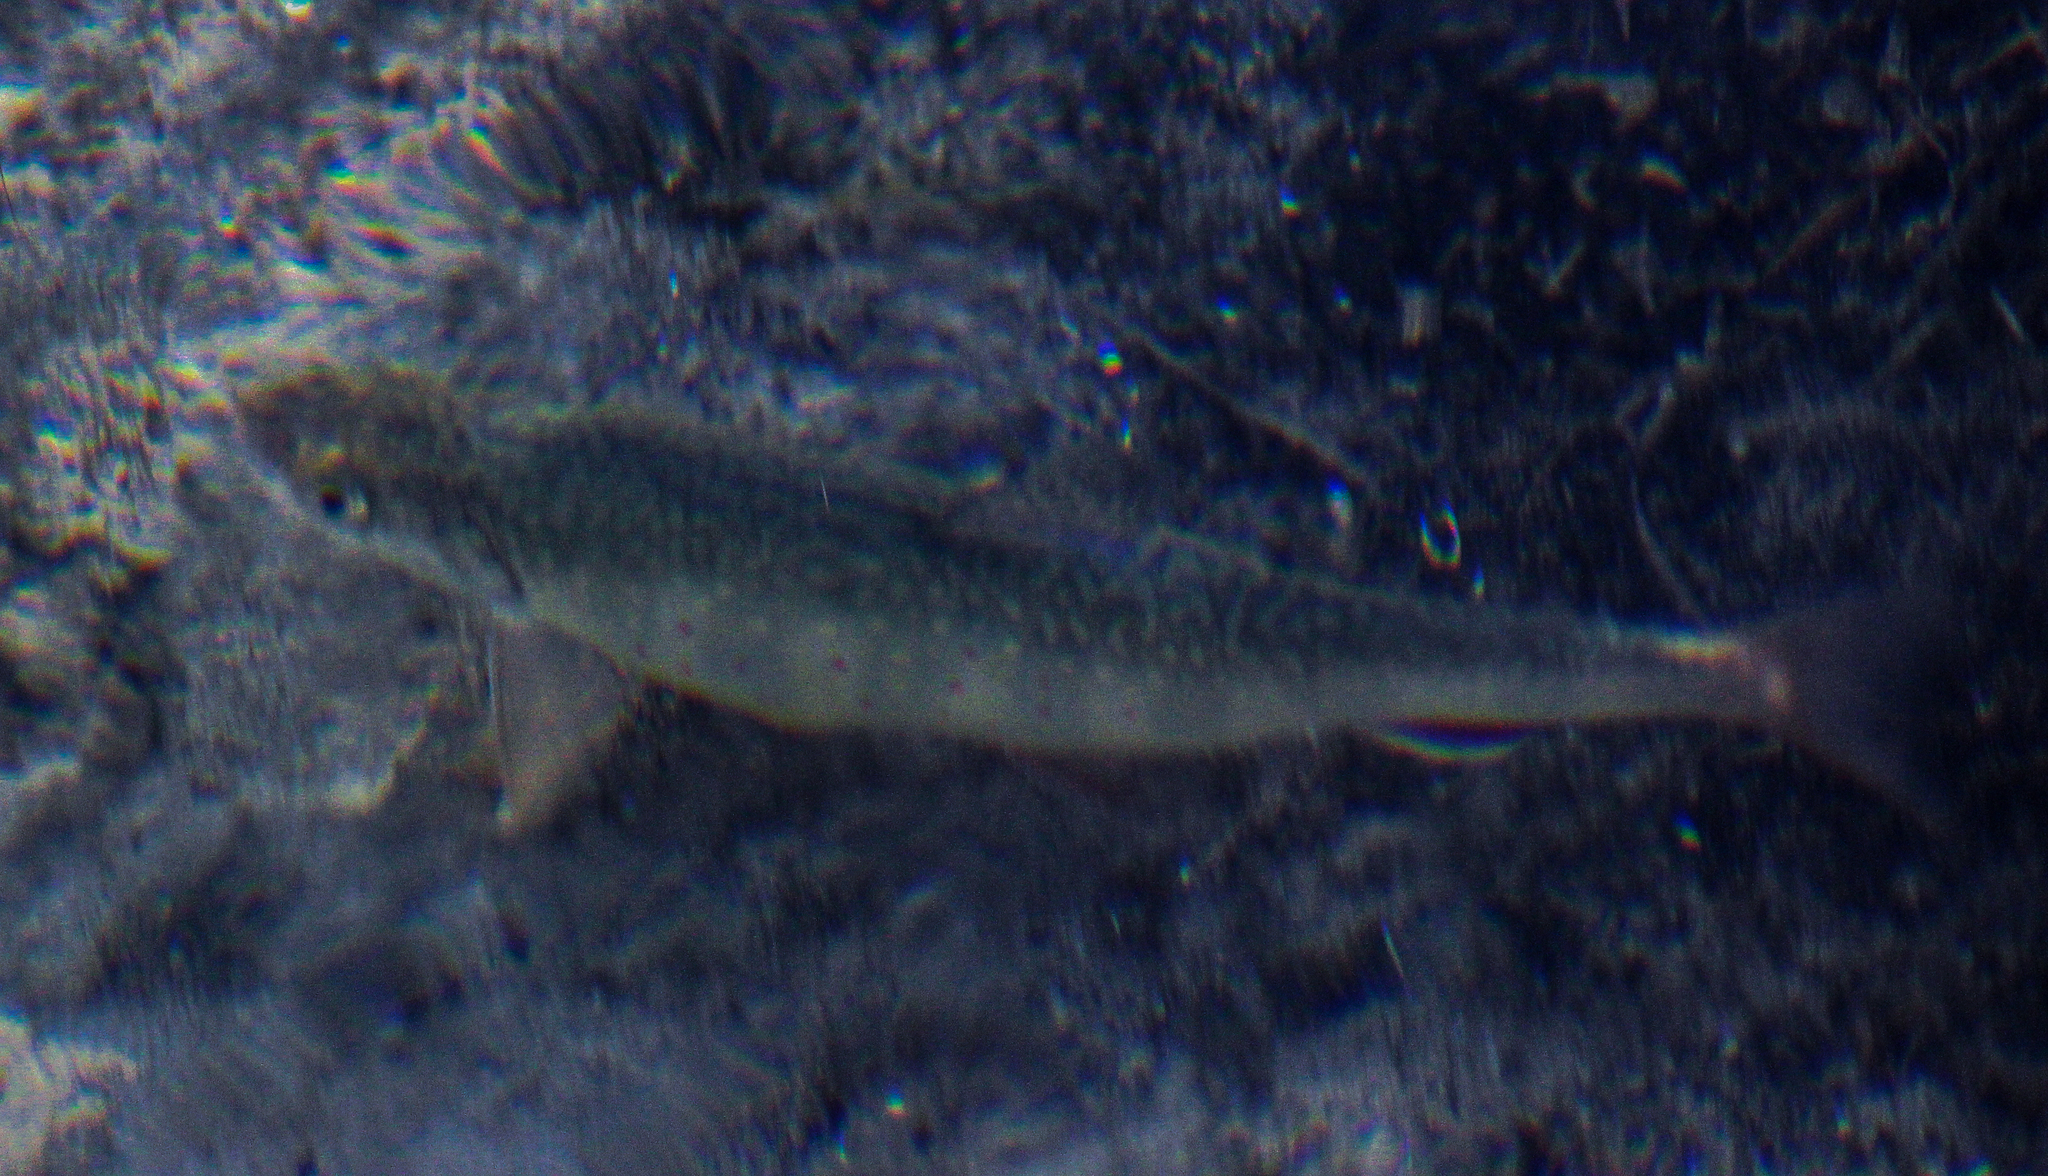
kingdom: Animalia
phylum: Chordata
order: Salmoniformes
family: Salmonidae
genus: Salvelinus
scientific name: Salvelinus fontinalis
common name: Brook trout
